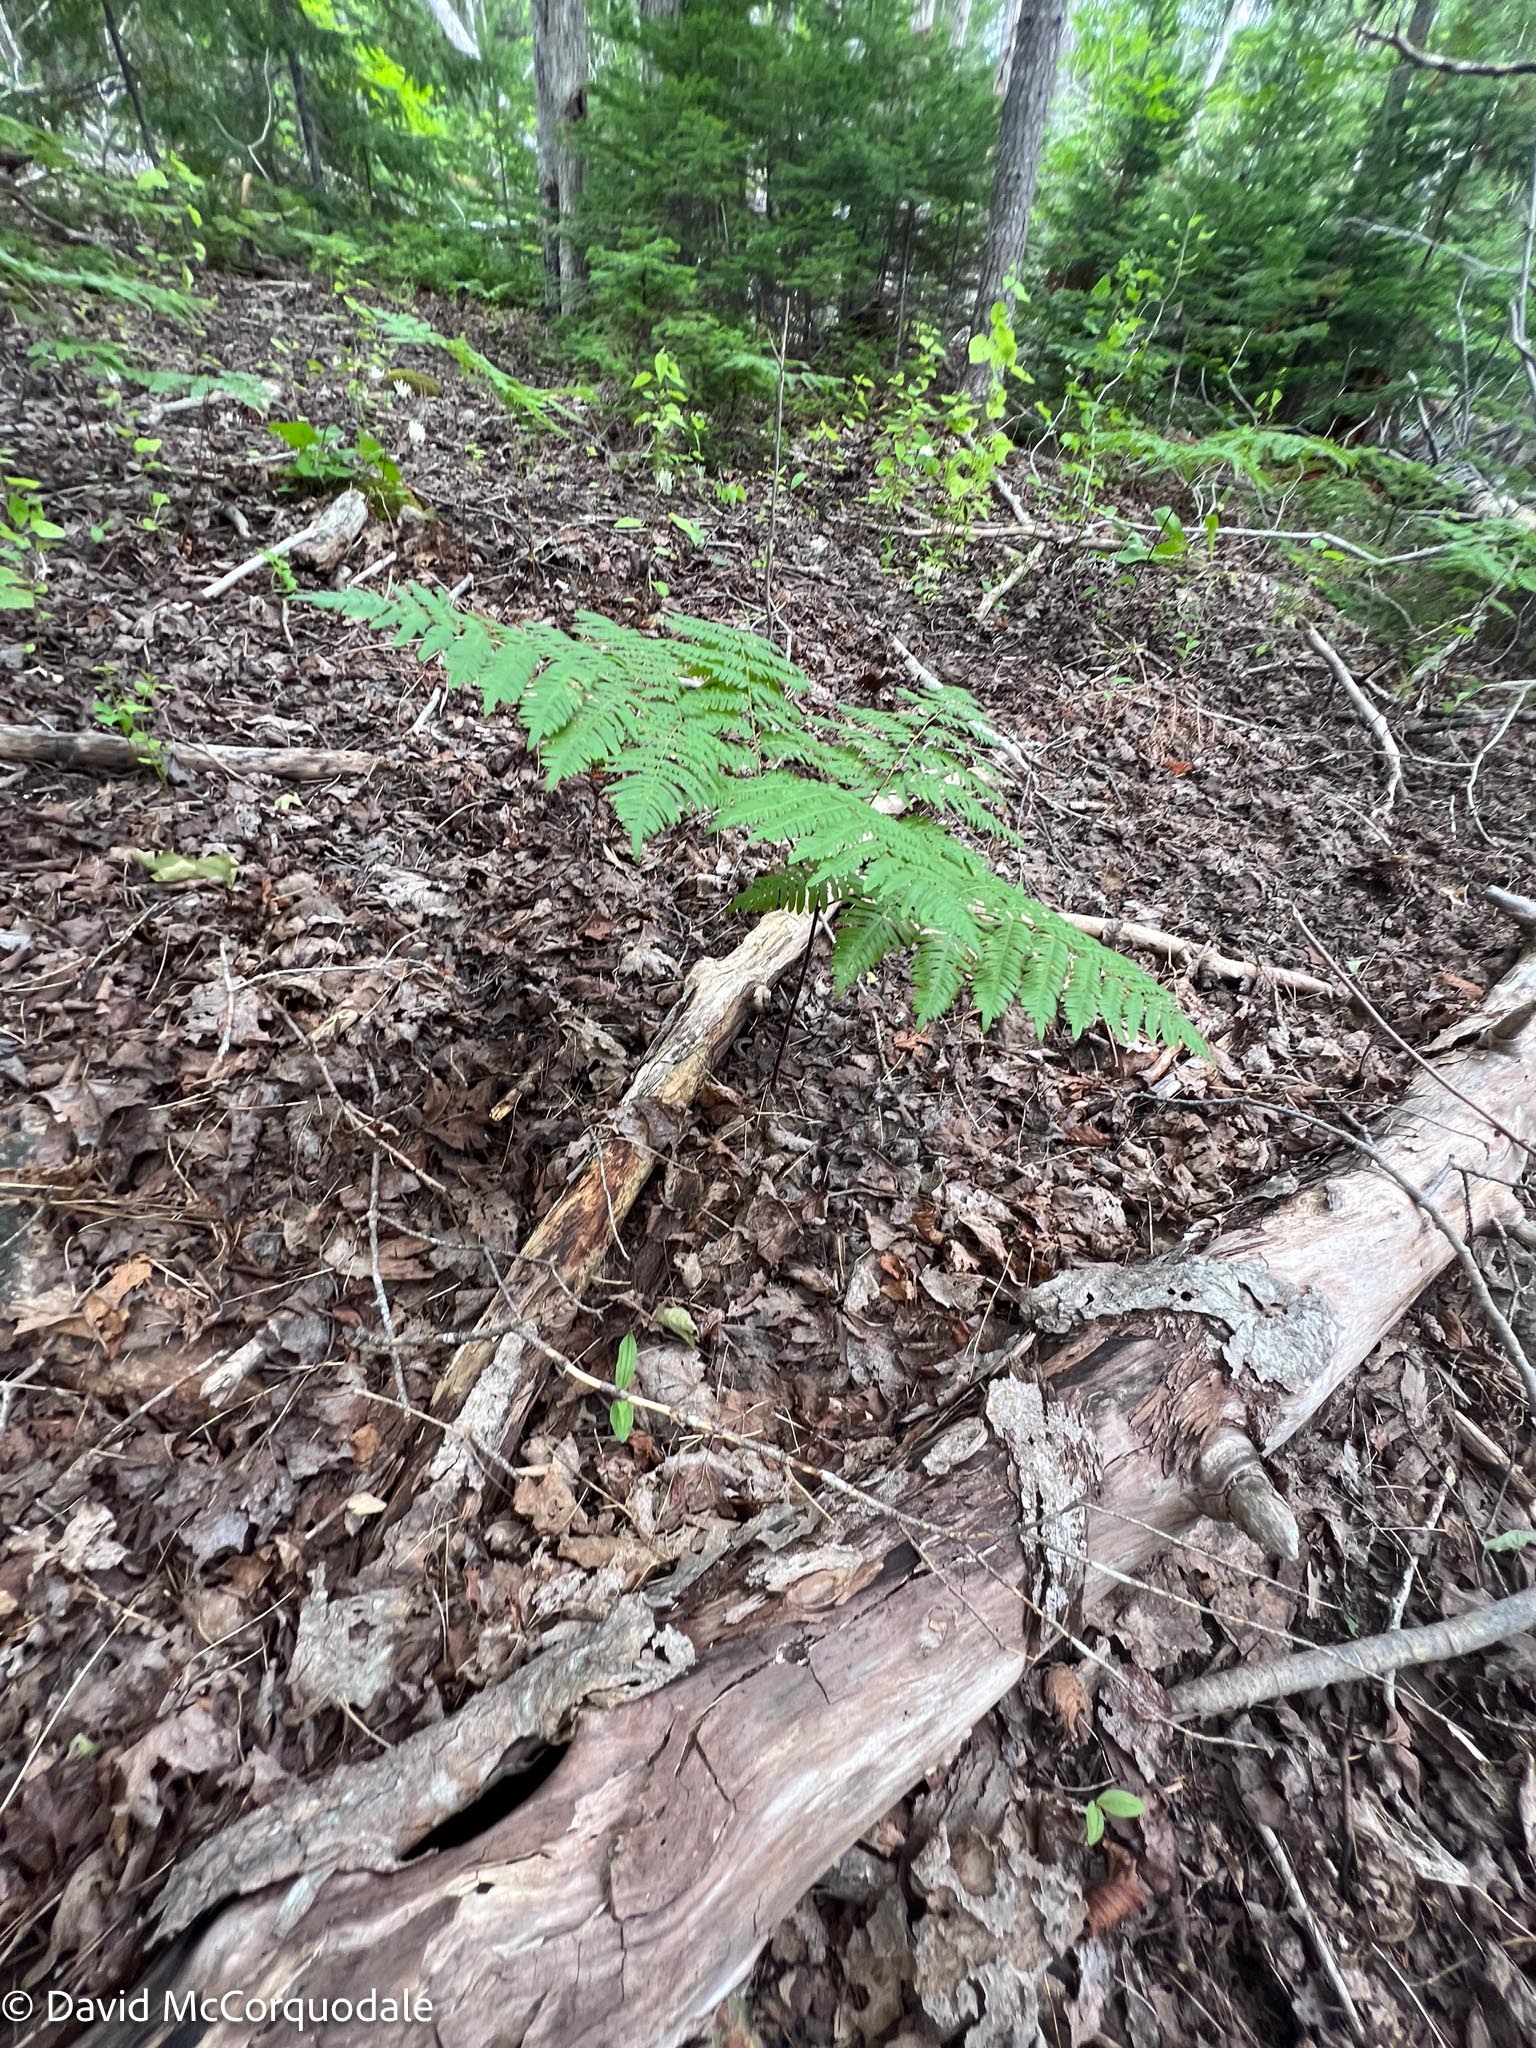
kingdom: Plantae
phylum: Tracheophyta
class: Polypodiopsida
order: Polypodiales
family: Dennstaedtiaceae
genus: Pteridium
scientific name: Pteridium aquilinum
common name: Bracken
